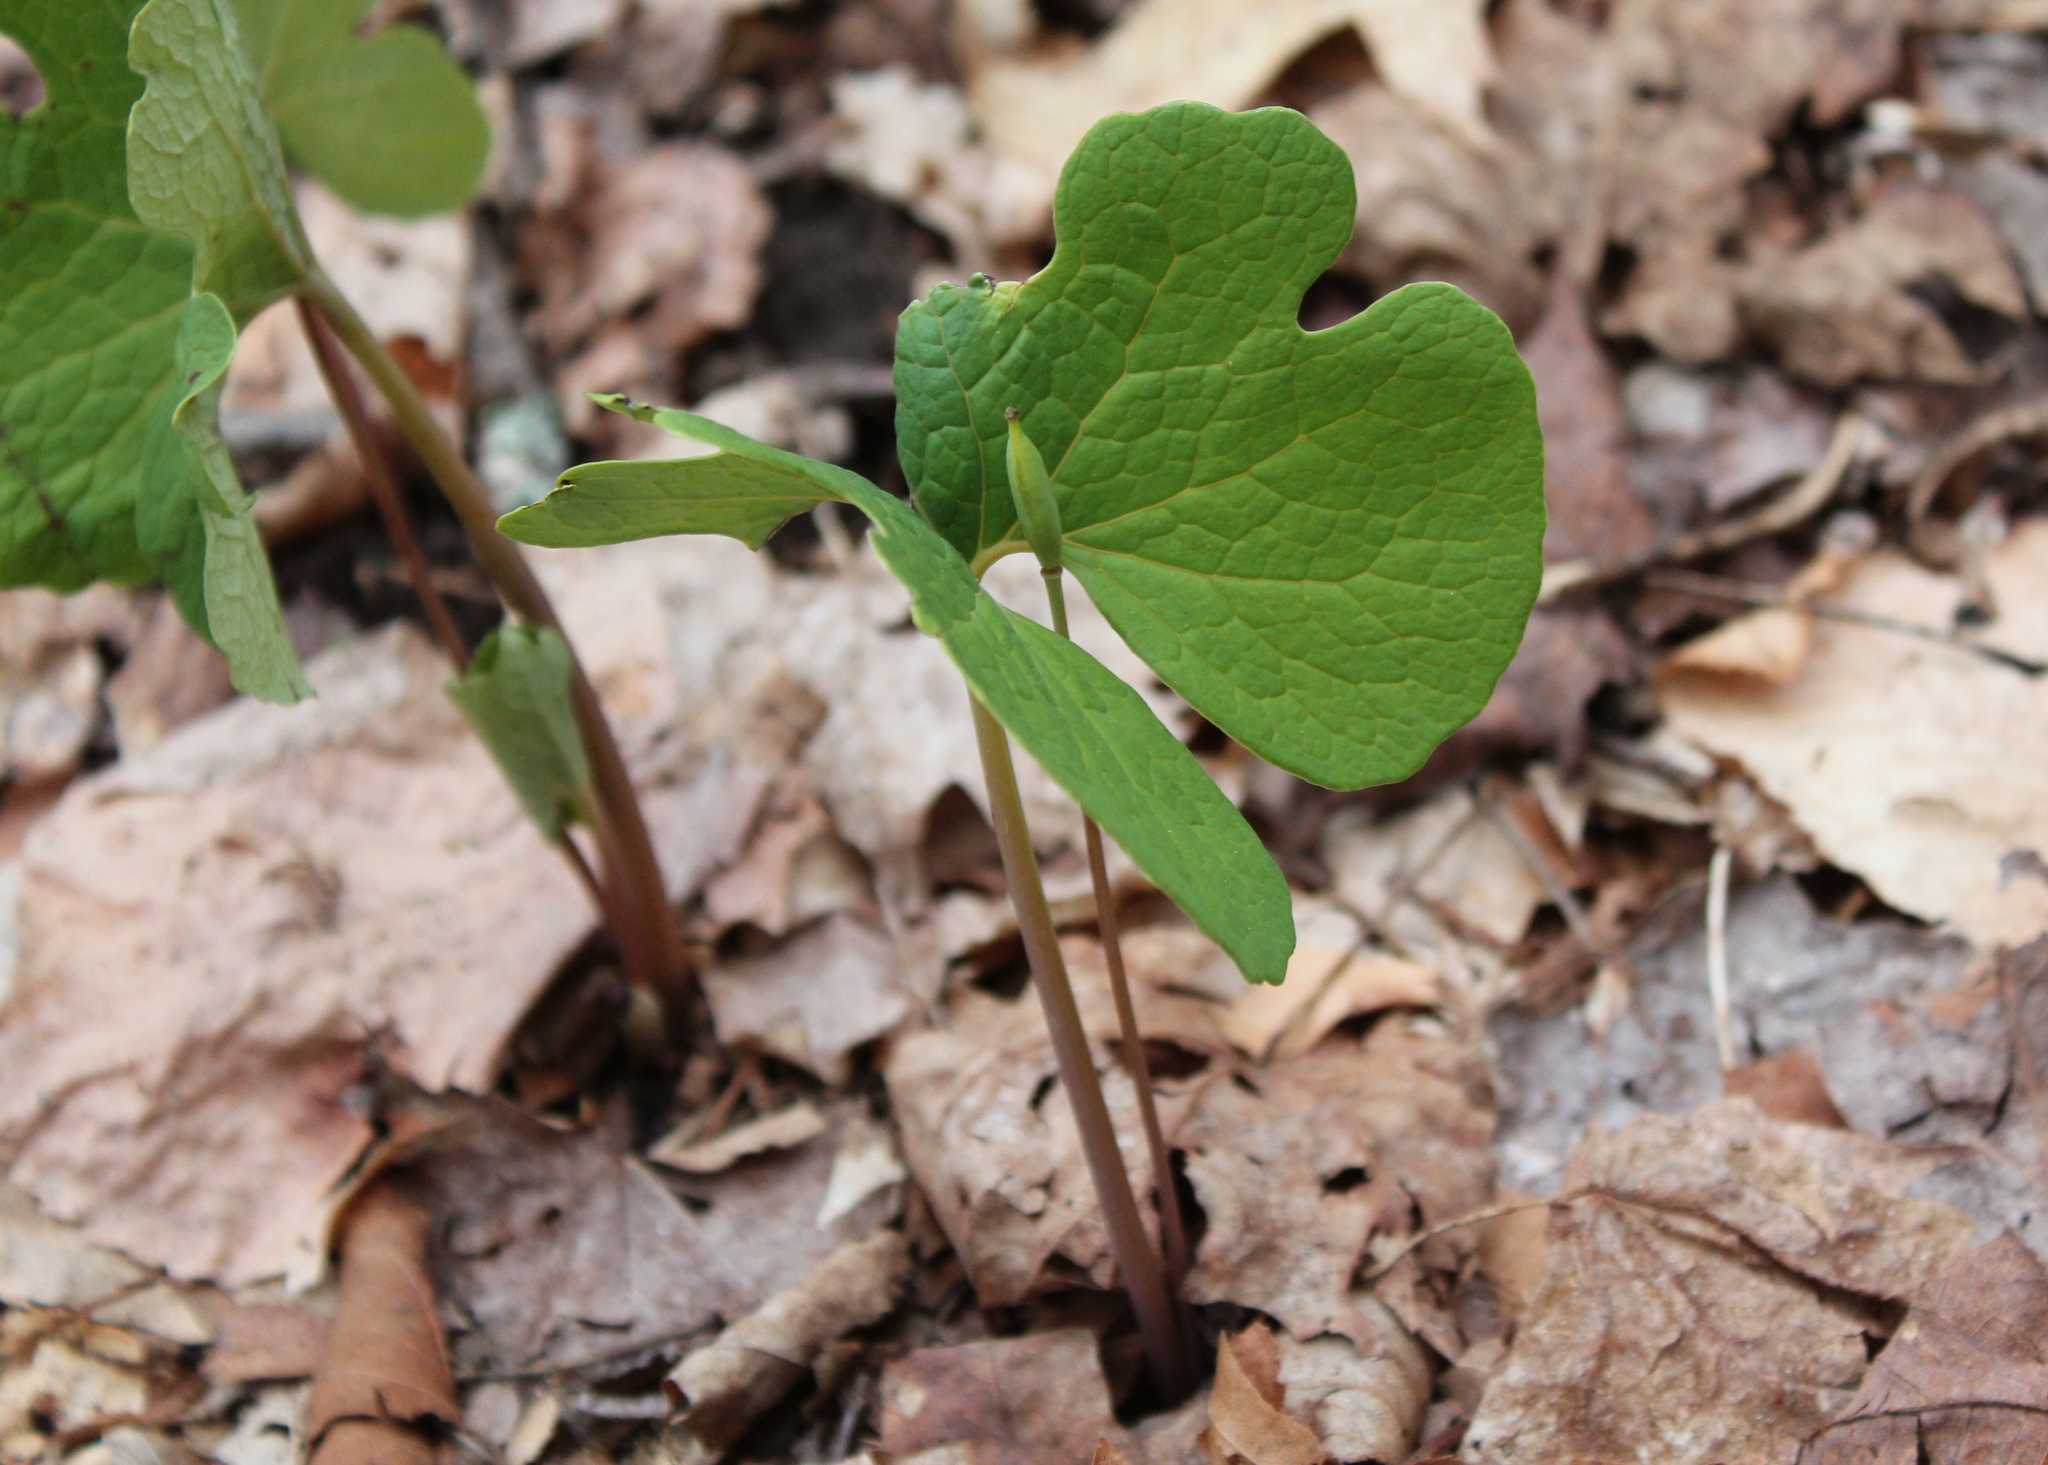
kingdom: Plantae
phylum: Tracheophyta
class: Magnoliopsida
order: Ranunculales
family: Papaveraceae
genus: Sanguinaria
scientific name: Sanguinaria canadensis
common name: Bloodroot
